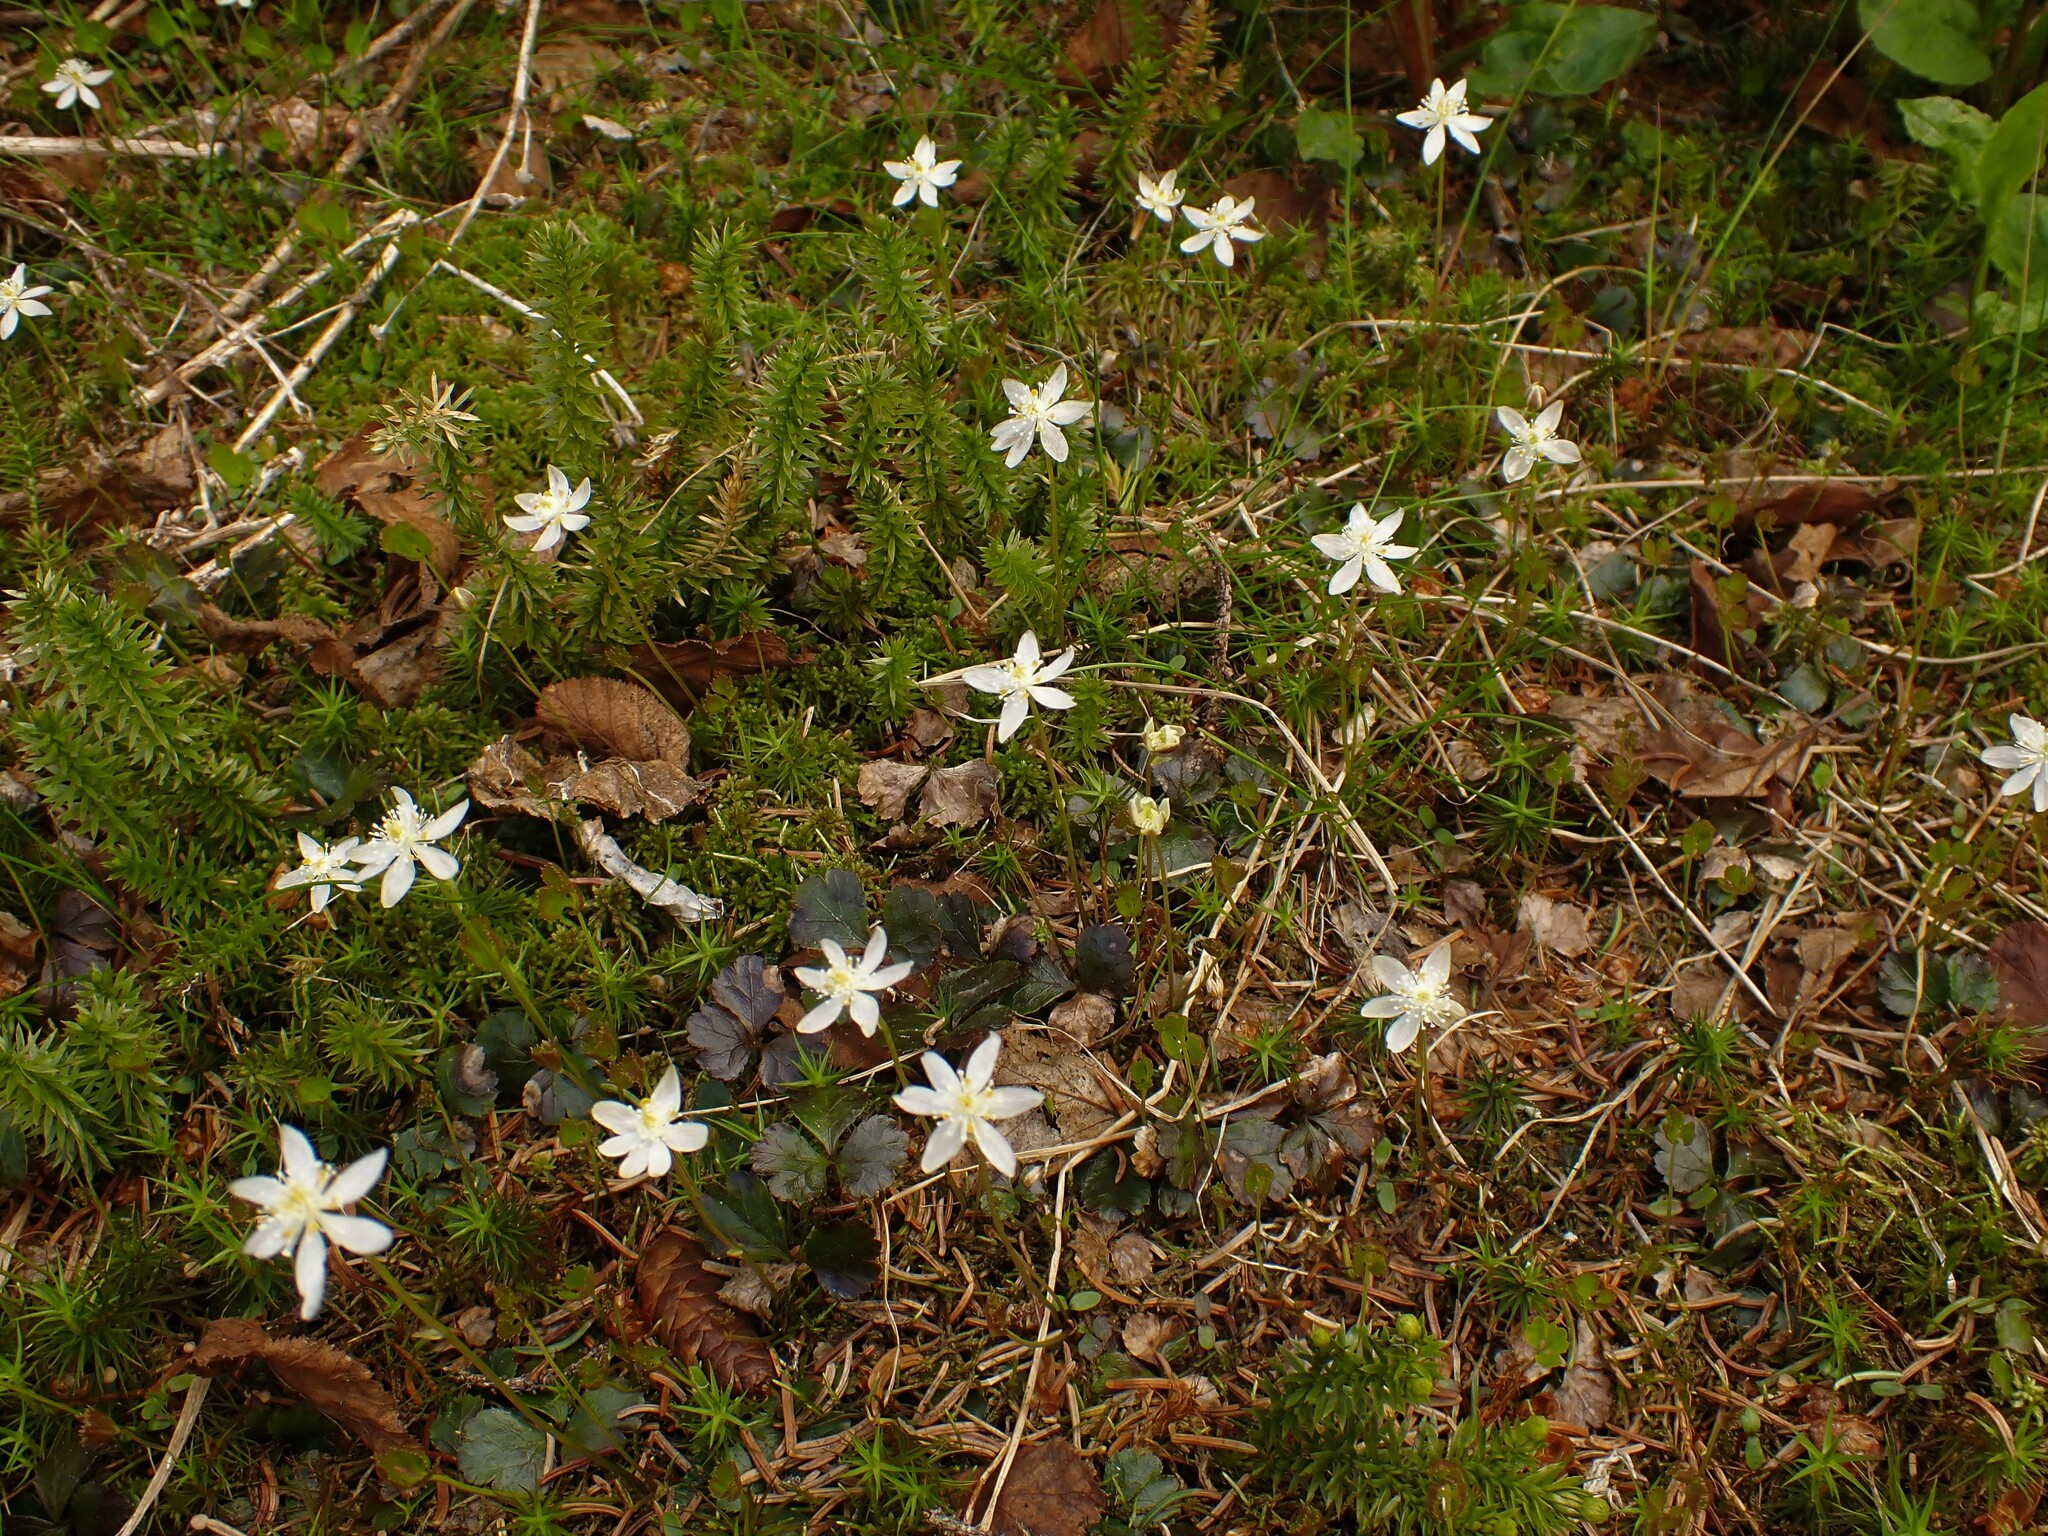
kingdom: Plantae
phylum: Tracheophyta
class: Magnoliopsida
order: Ranunculales
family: Ranunculaceae
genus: Coptis
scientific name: Coptis trifolia
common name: Canker-root
